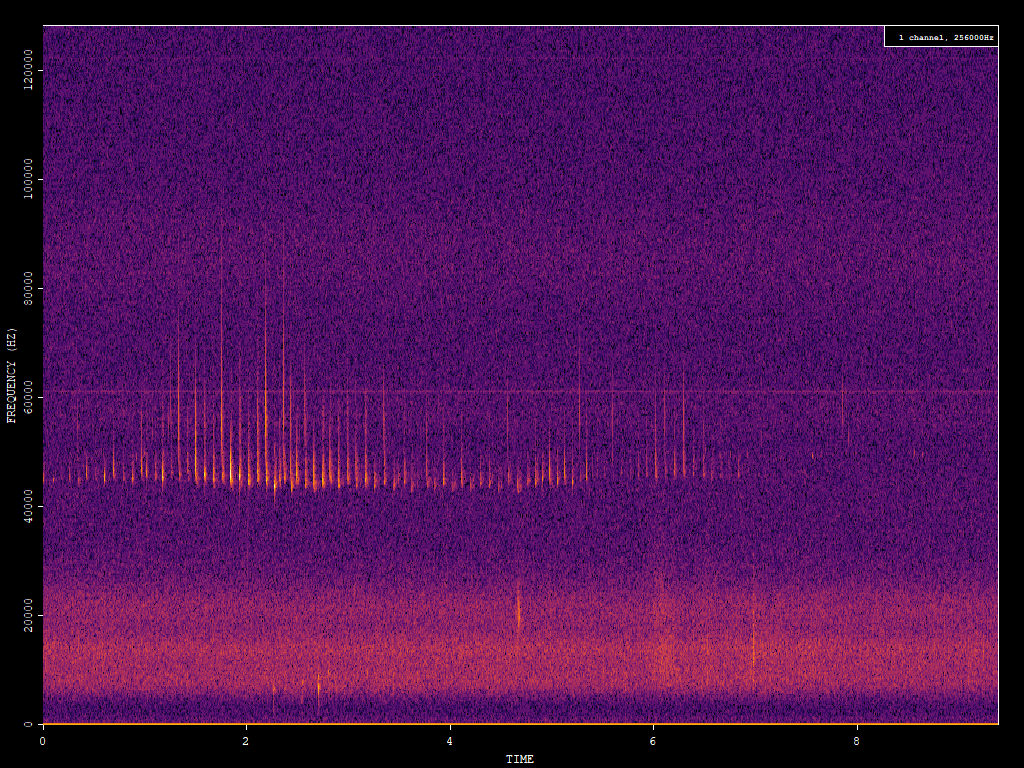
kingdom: Animalia
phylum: Chordata
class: Mammalia
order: Chiroptera
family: Vespertilionidae
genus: Pipistrellus
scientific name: Pipistrellus pipistrellus
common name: Common pipistrelle
